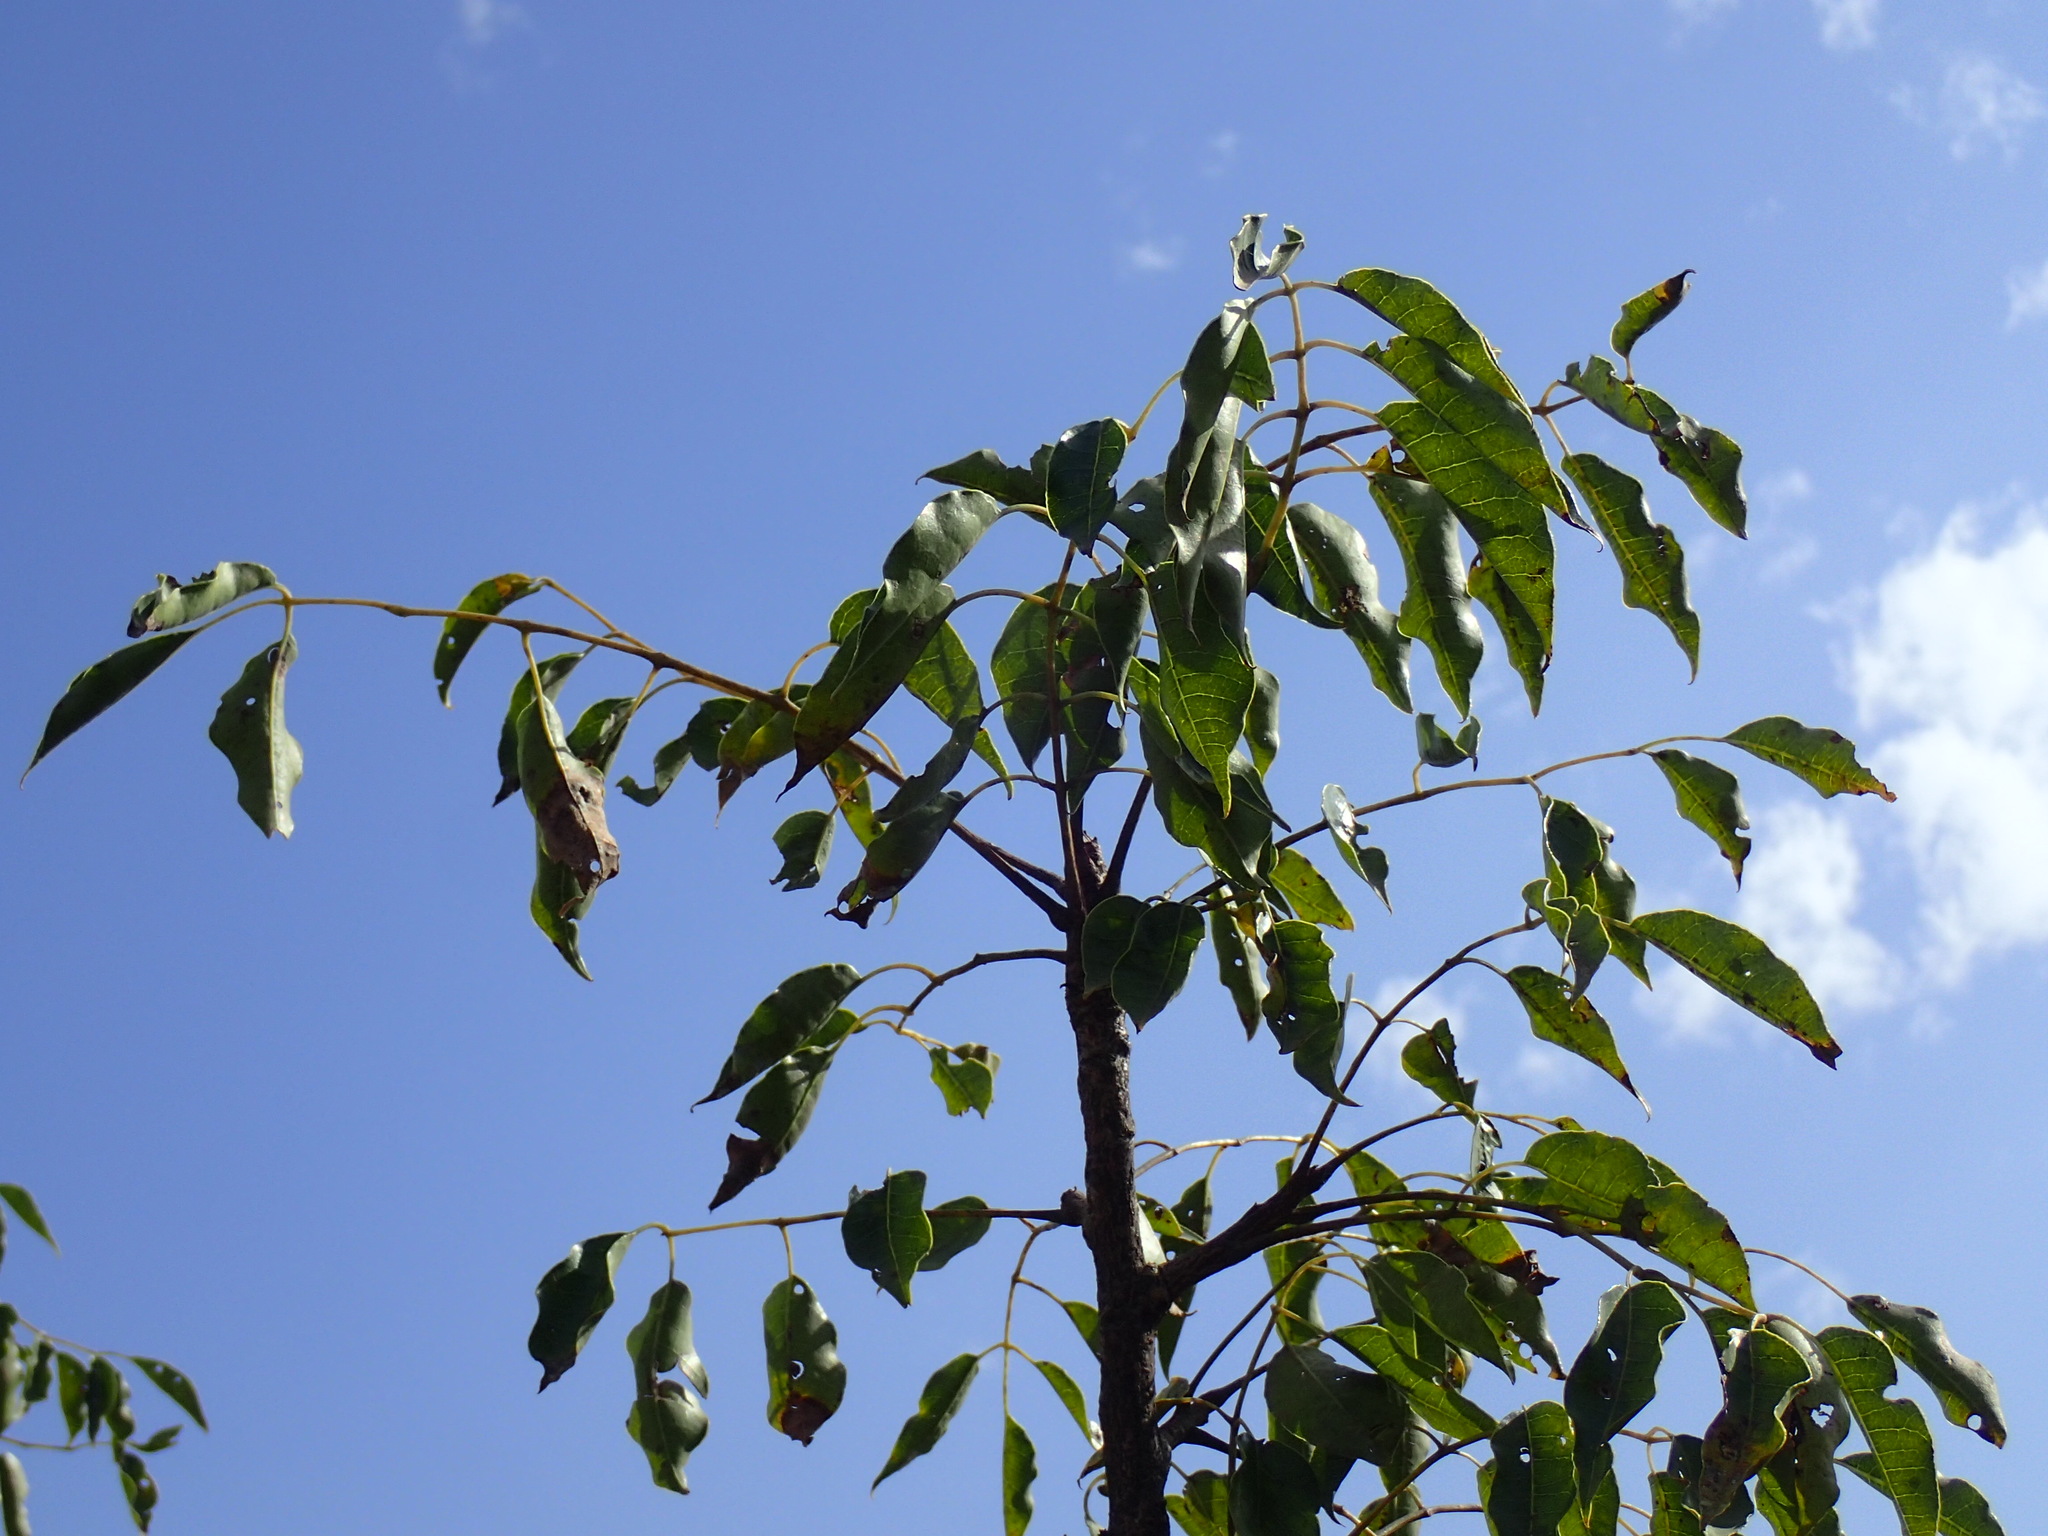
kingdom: Plantae
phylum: Tracheophyta
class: Magnoliopsida
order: Sapindales
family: Anacardiaceae
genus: Sclerocarya
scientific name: Sclerocarya birrea
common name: Marula
